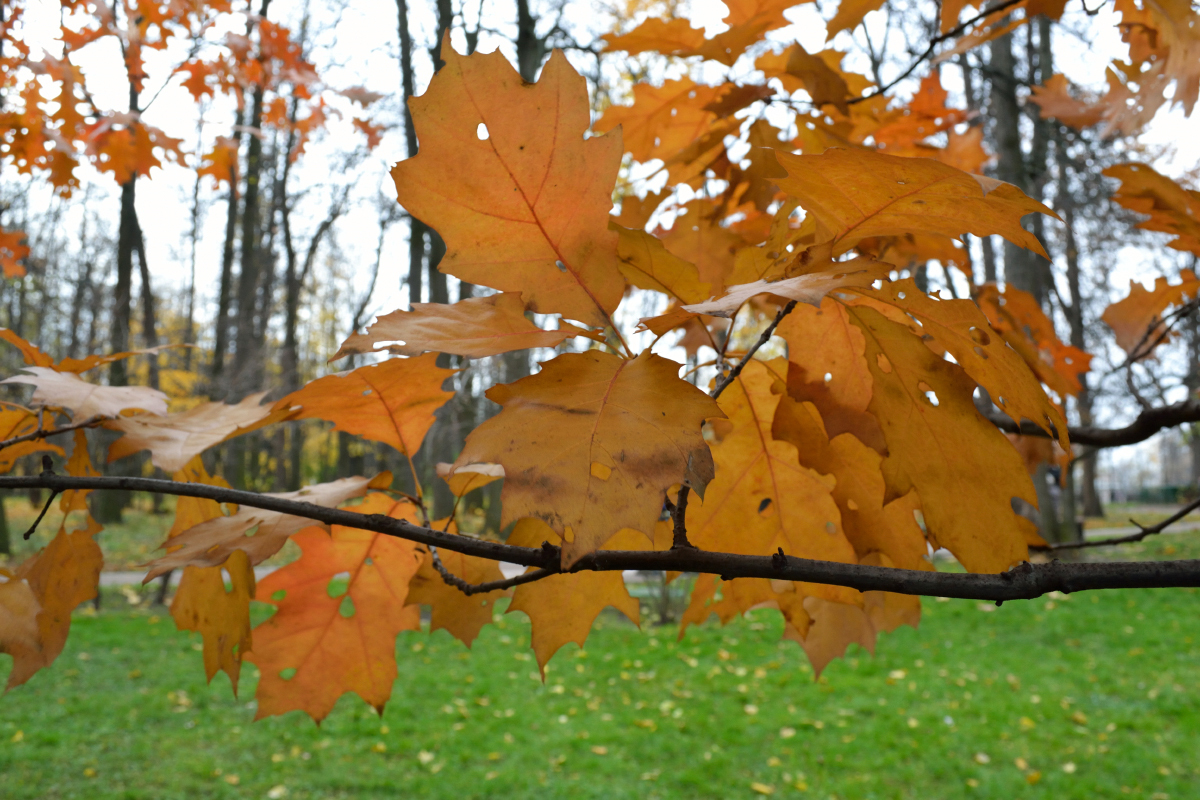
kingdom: Plantae
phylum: Tracheophyta
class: Magnoliopsida
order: Fagales
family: Fagaceae
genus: Quercus
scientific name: Quercus rubra
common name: Red oak
